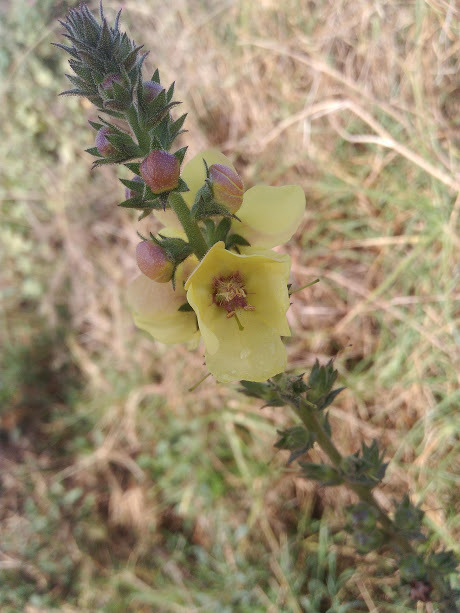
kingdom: Plantae
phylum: Tracheophyta
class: Magnoliopsida
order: Lamiales
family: Scrophulariaceae
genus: Verbascum
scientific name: Verbascum virgatum
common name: Twiggy mullein
